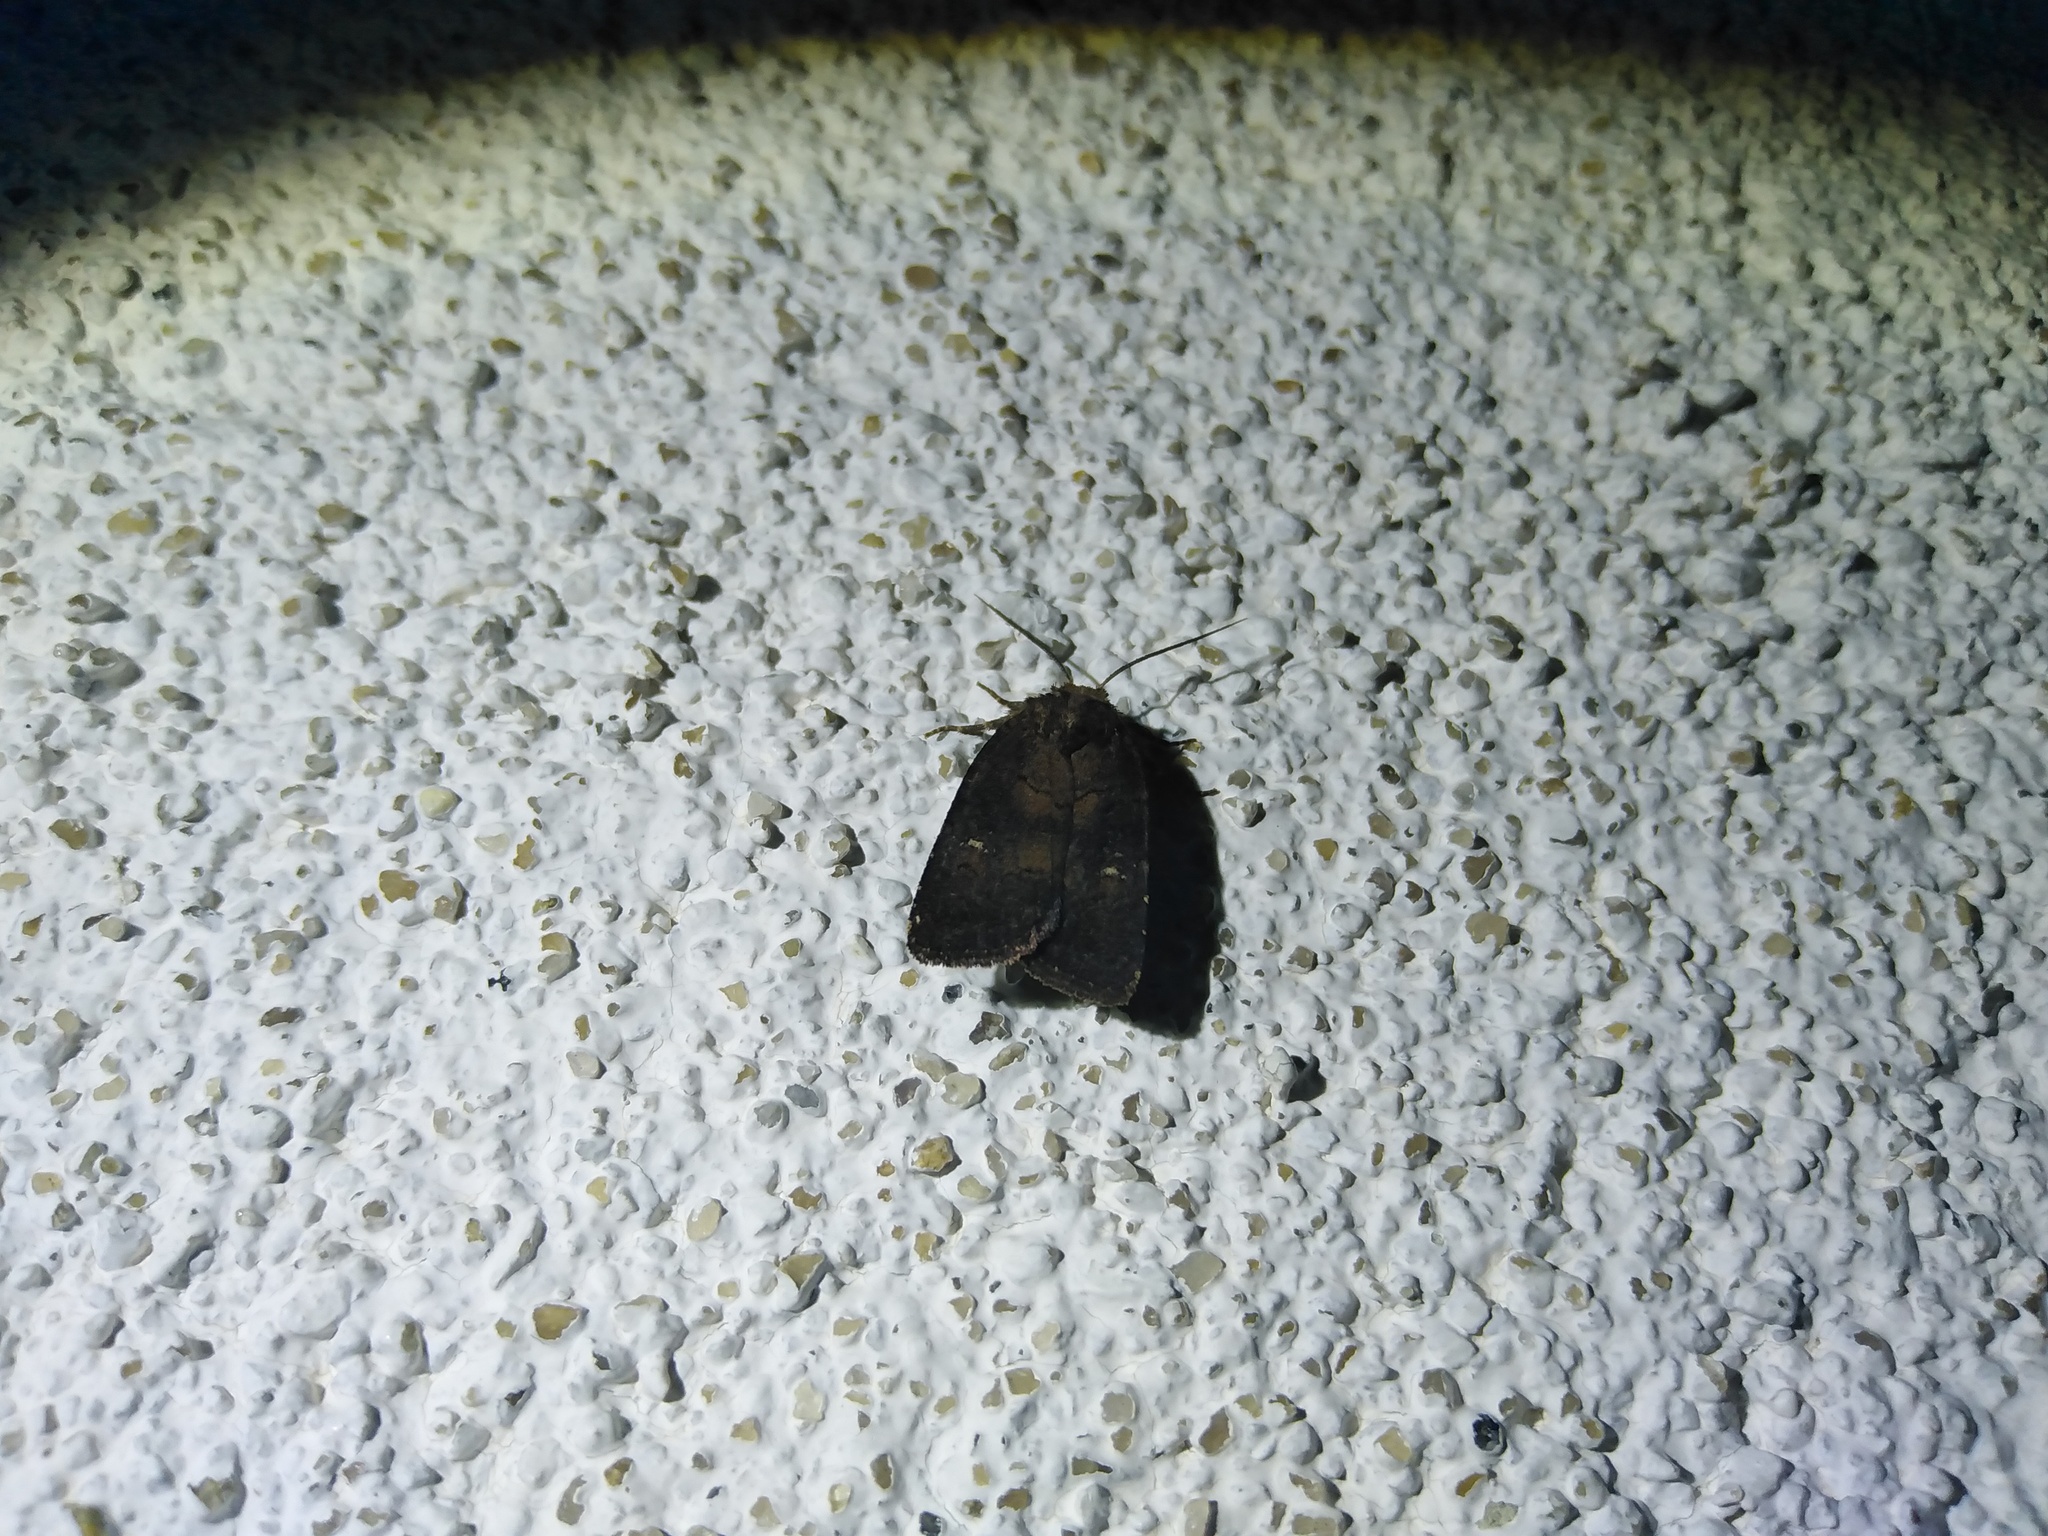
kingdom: Animalia
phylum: Arthropoda
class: Insecta
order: Lepidoptera
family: Noctuidae
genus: Charanyca
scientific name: Charanyca ferruginea
